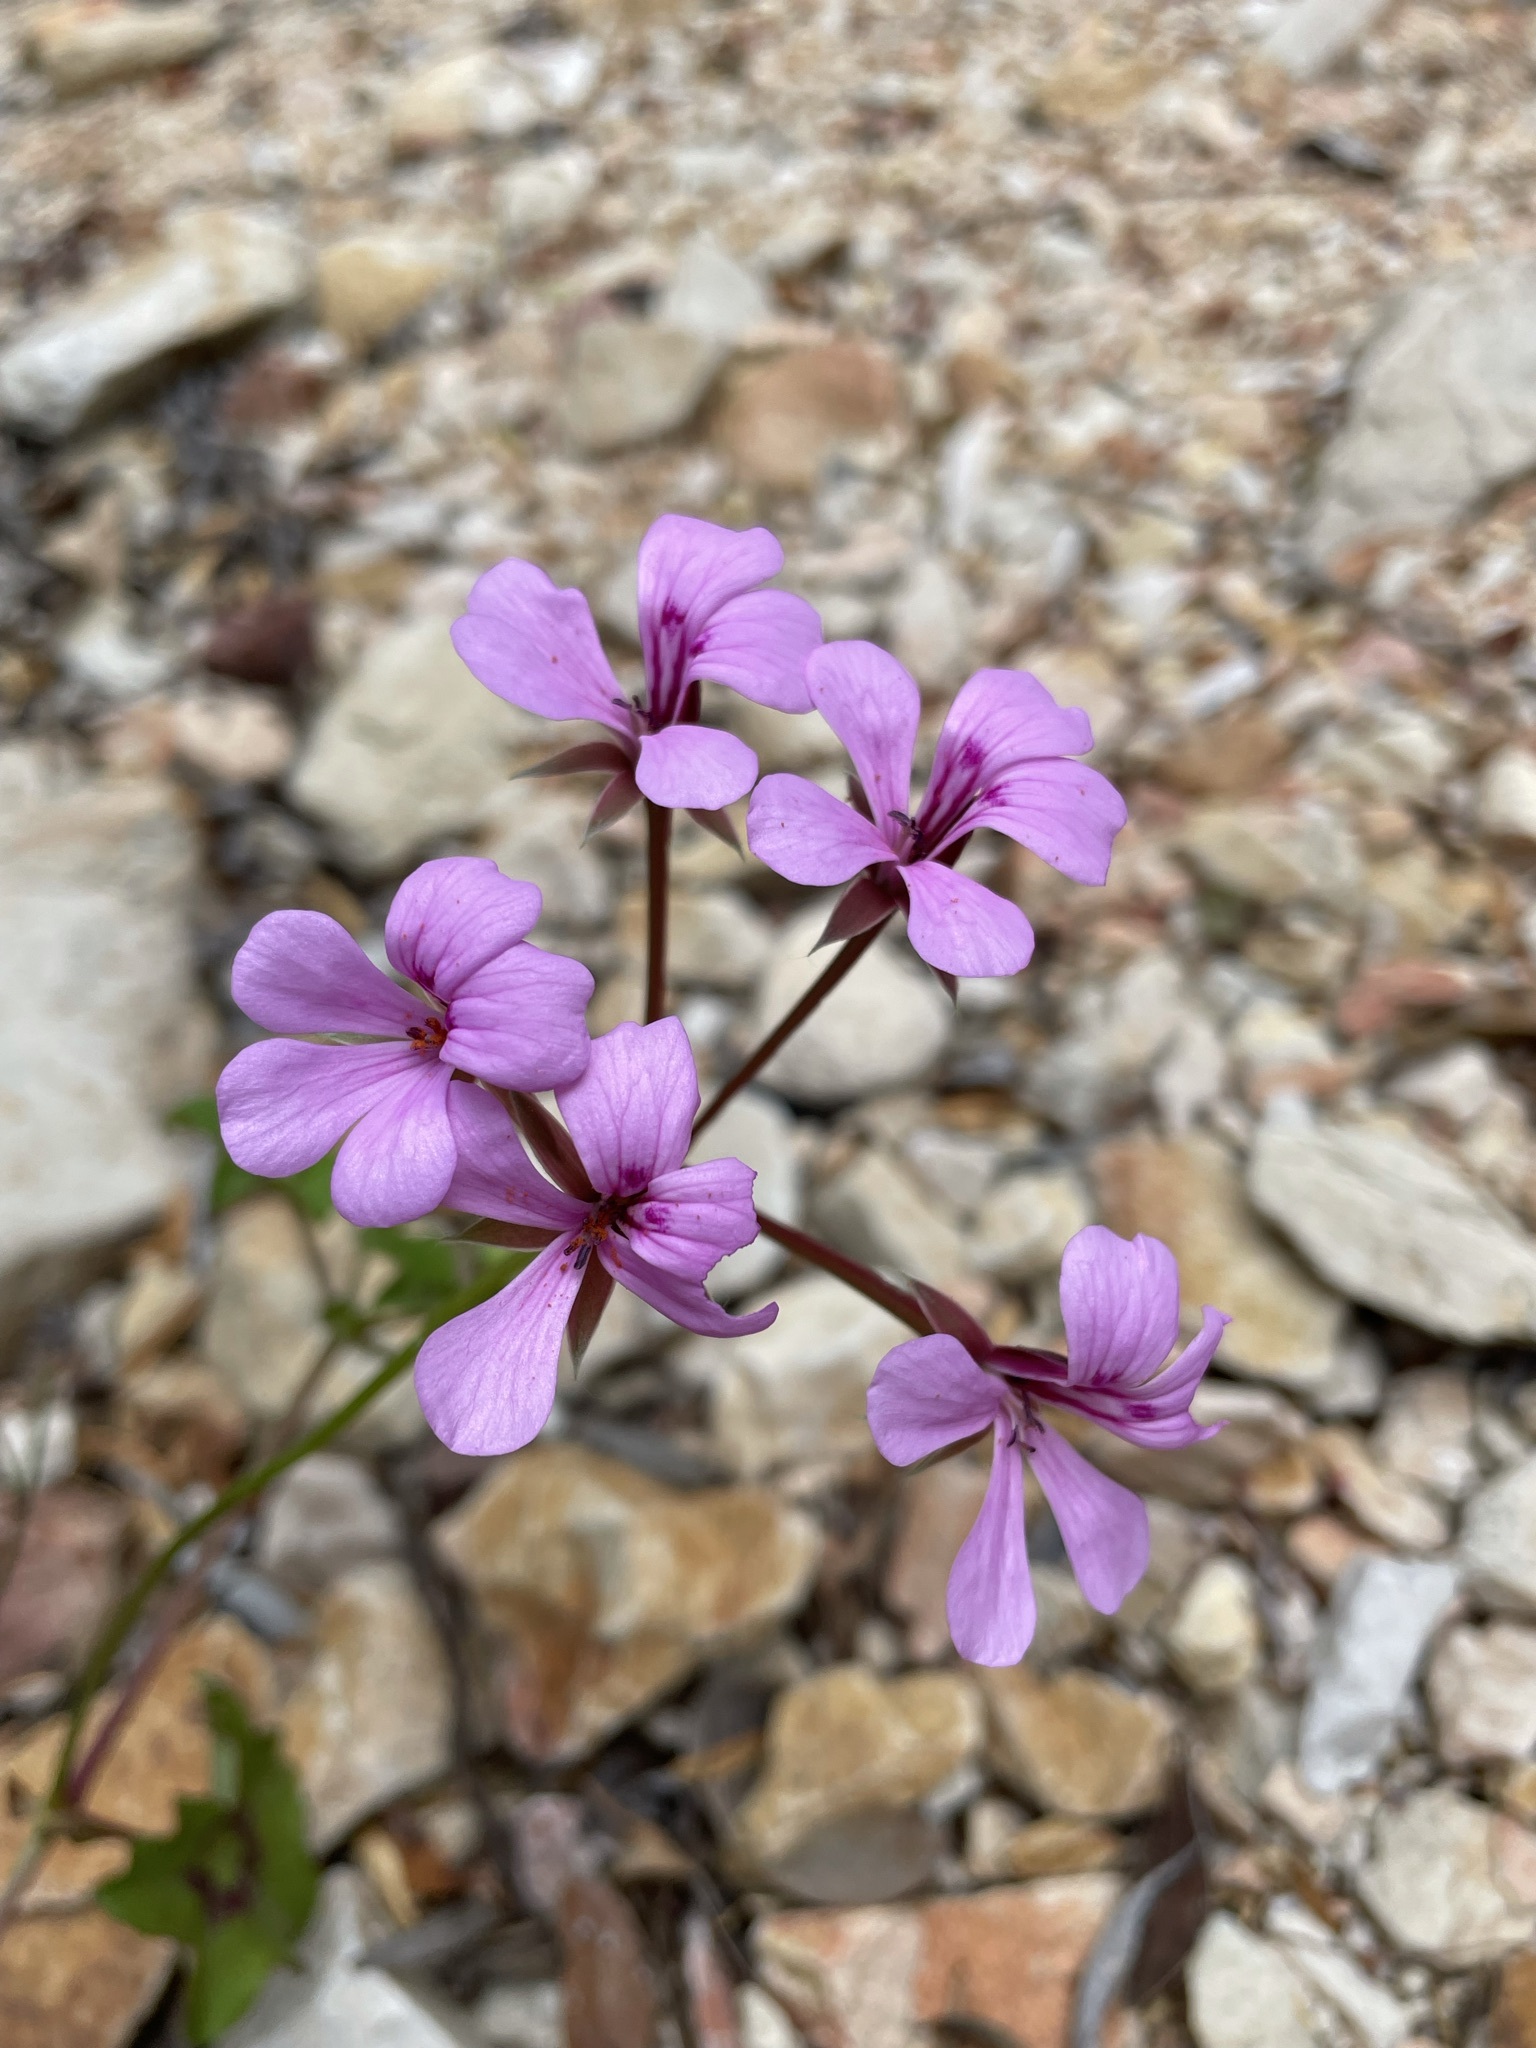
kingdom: Plantae
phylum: Tracheophyta
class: Magnoliopsida
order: Geraniales
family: Geraniaceae
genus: Pelargonium
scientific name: Pelargonium peltatum
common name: Ivyleaf geranium
